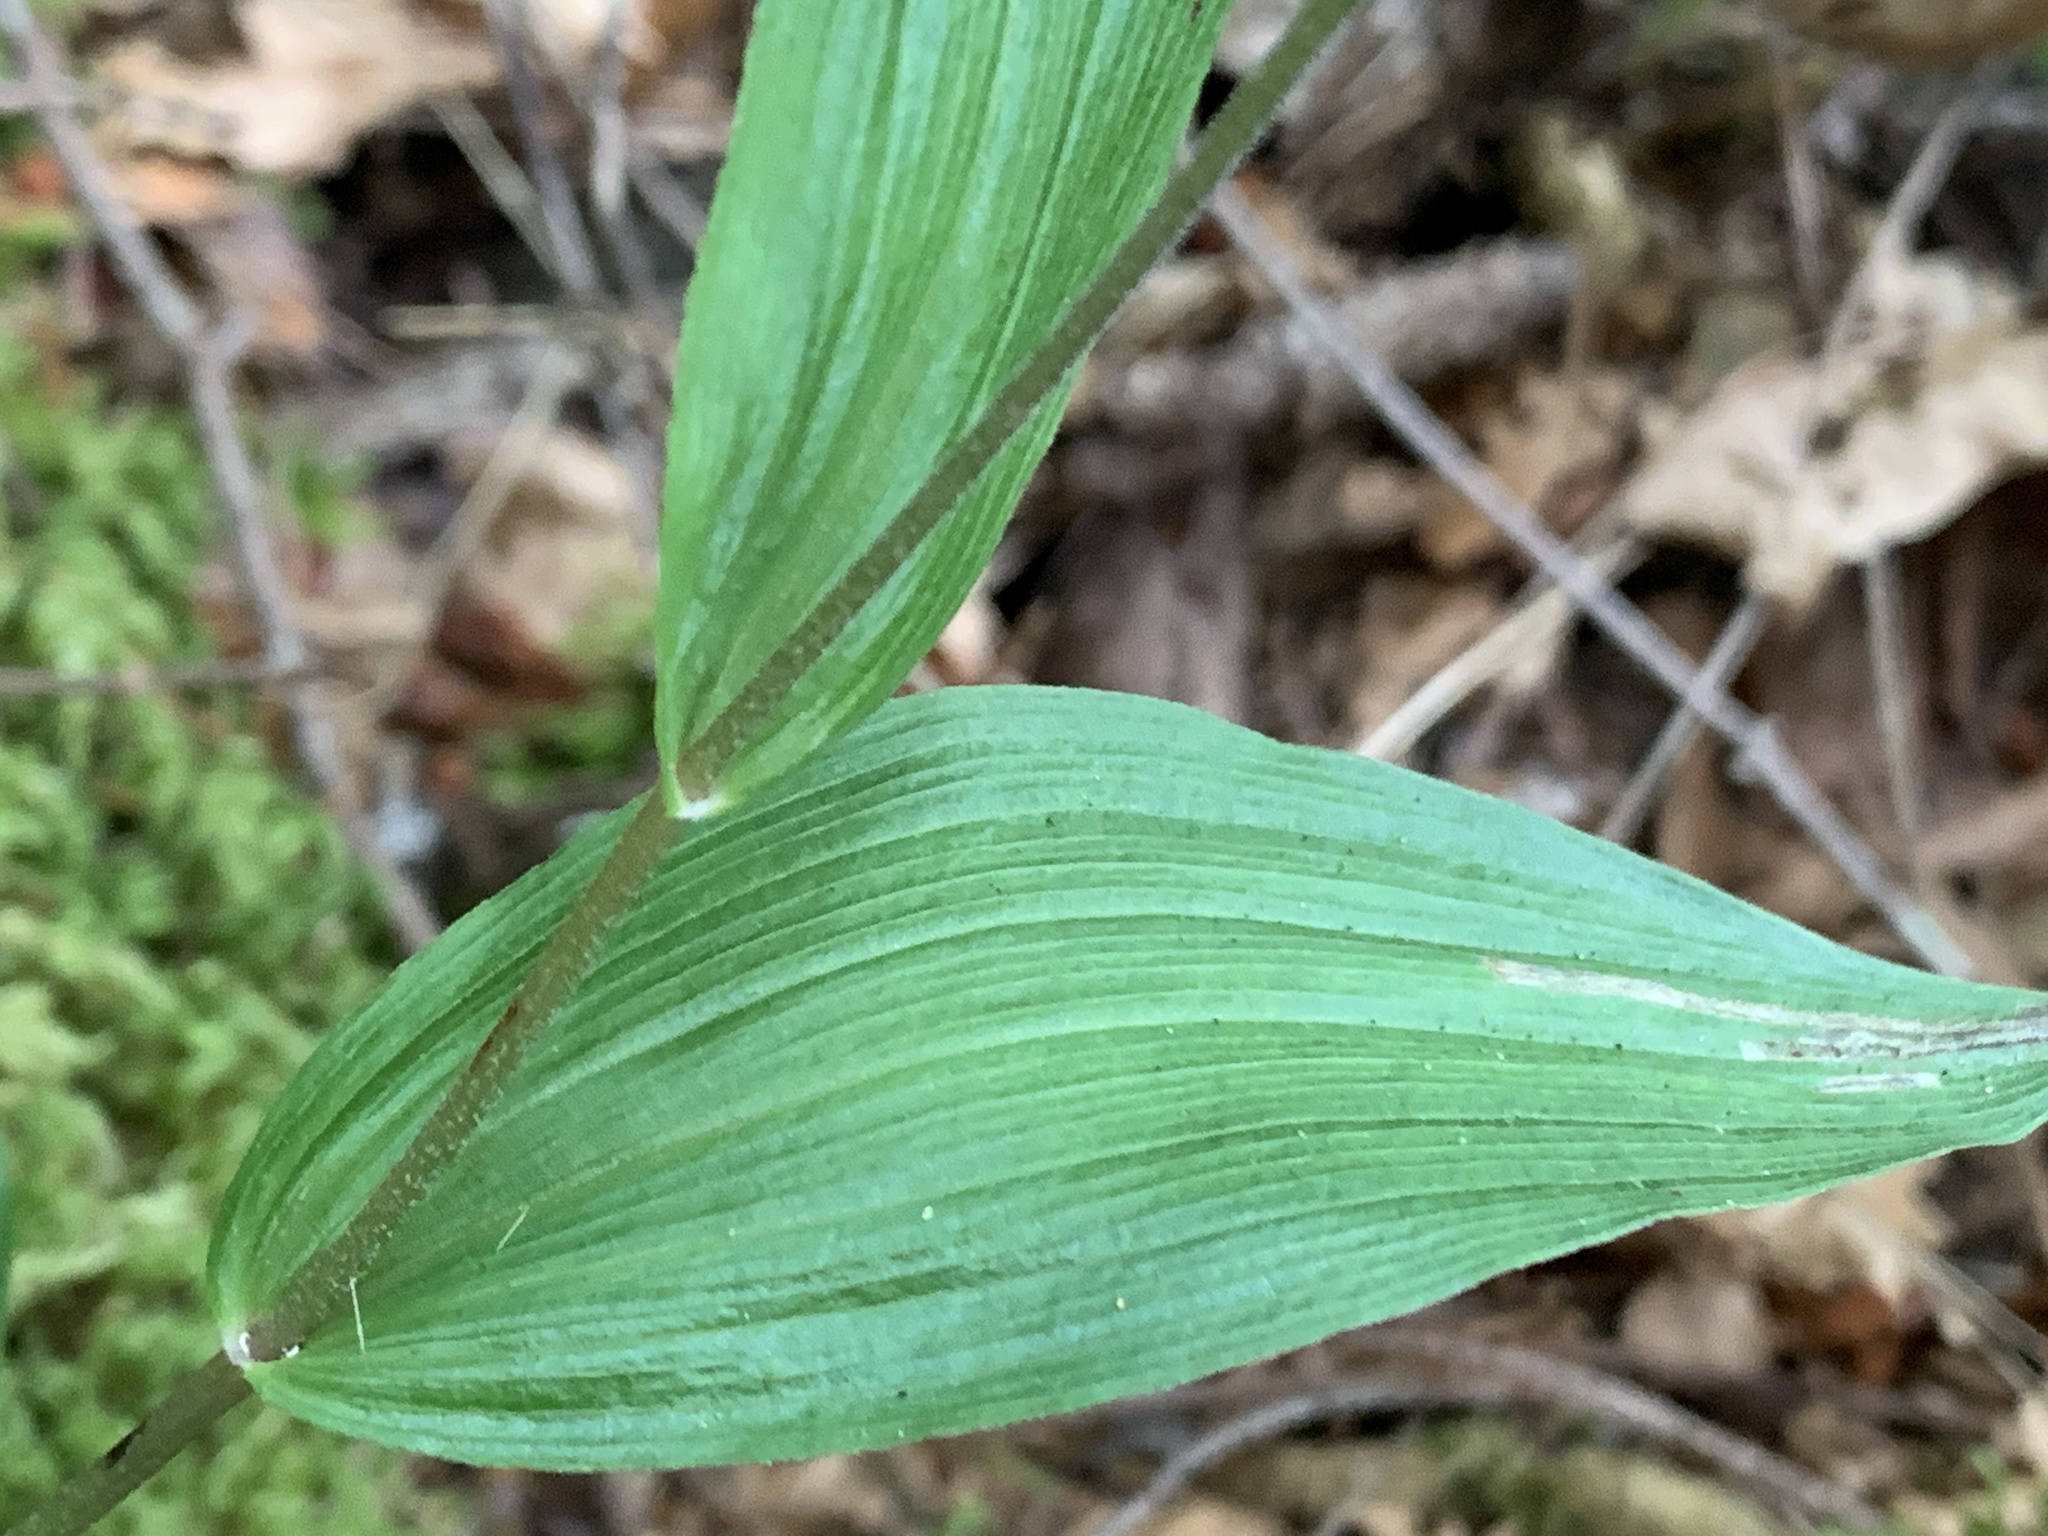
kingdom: Plantae
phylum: Tracheophyta
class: Liliopsida
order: Asparagales
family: Orchidaceae
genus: Epipactis
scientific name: Epipactis helleborine
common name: Broad-leaved helleborine
